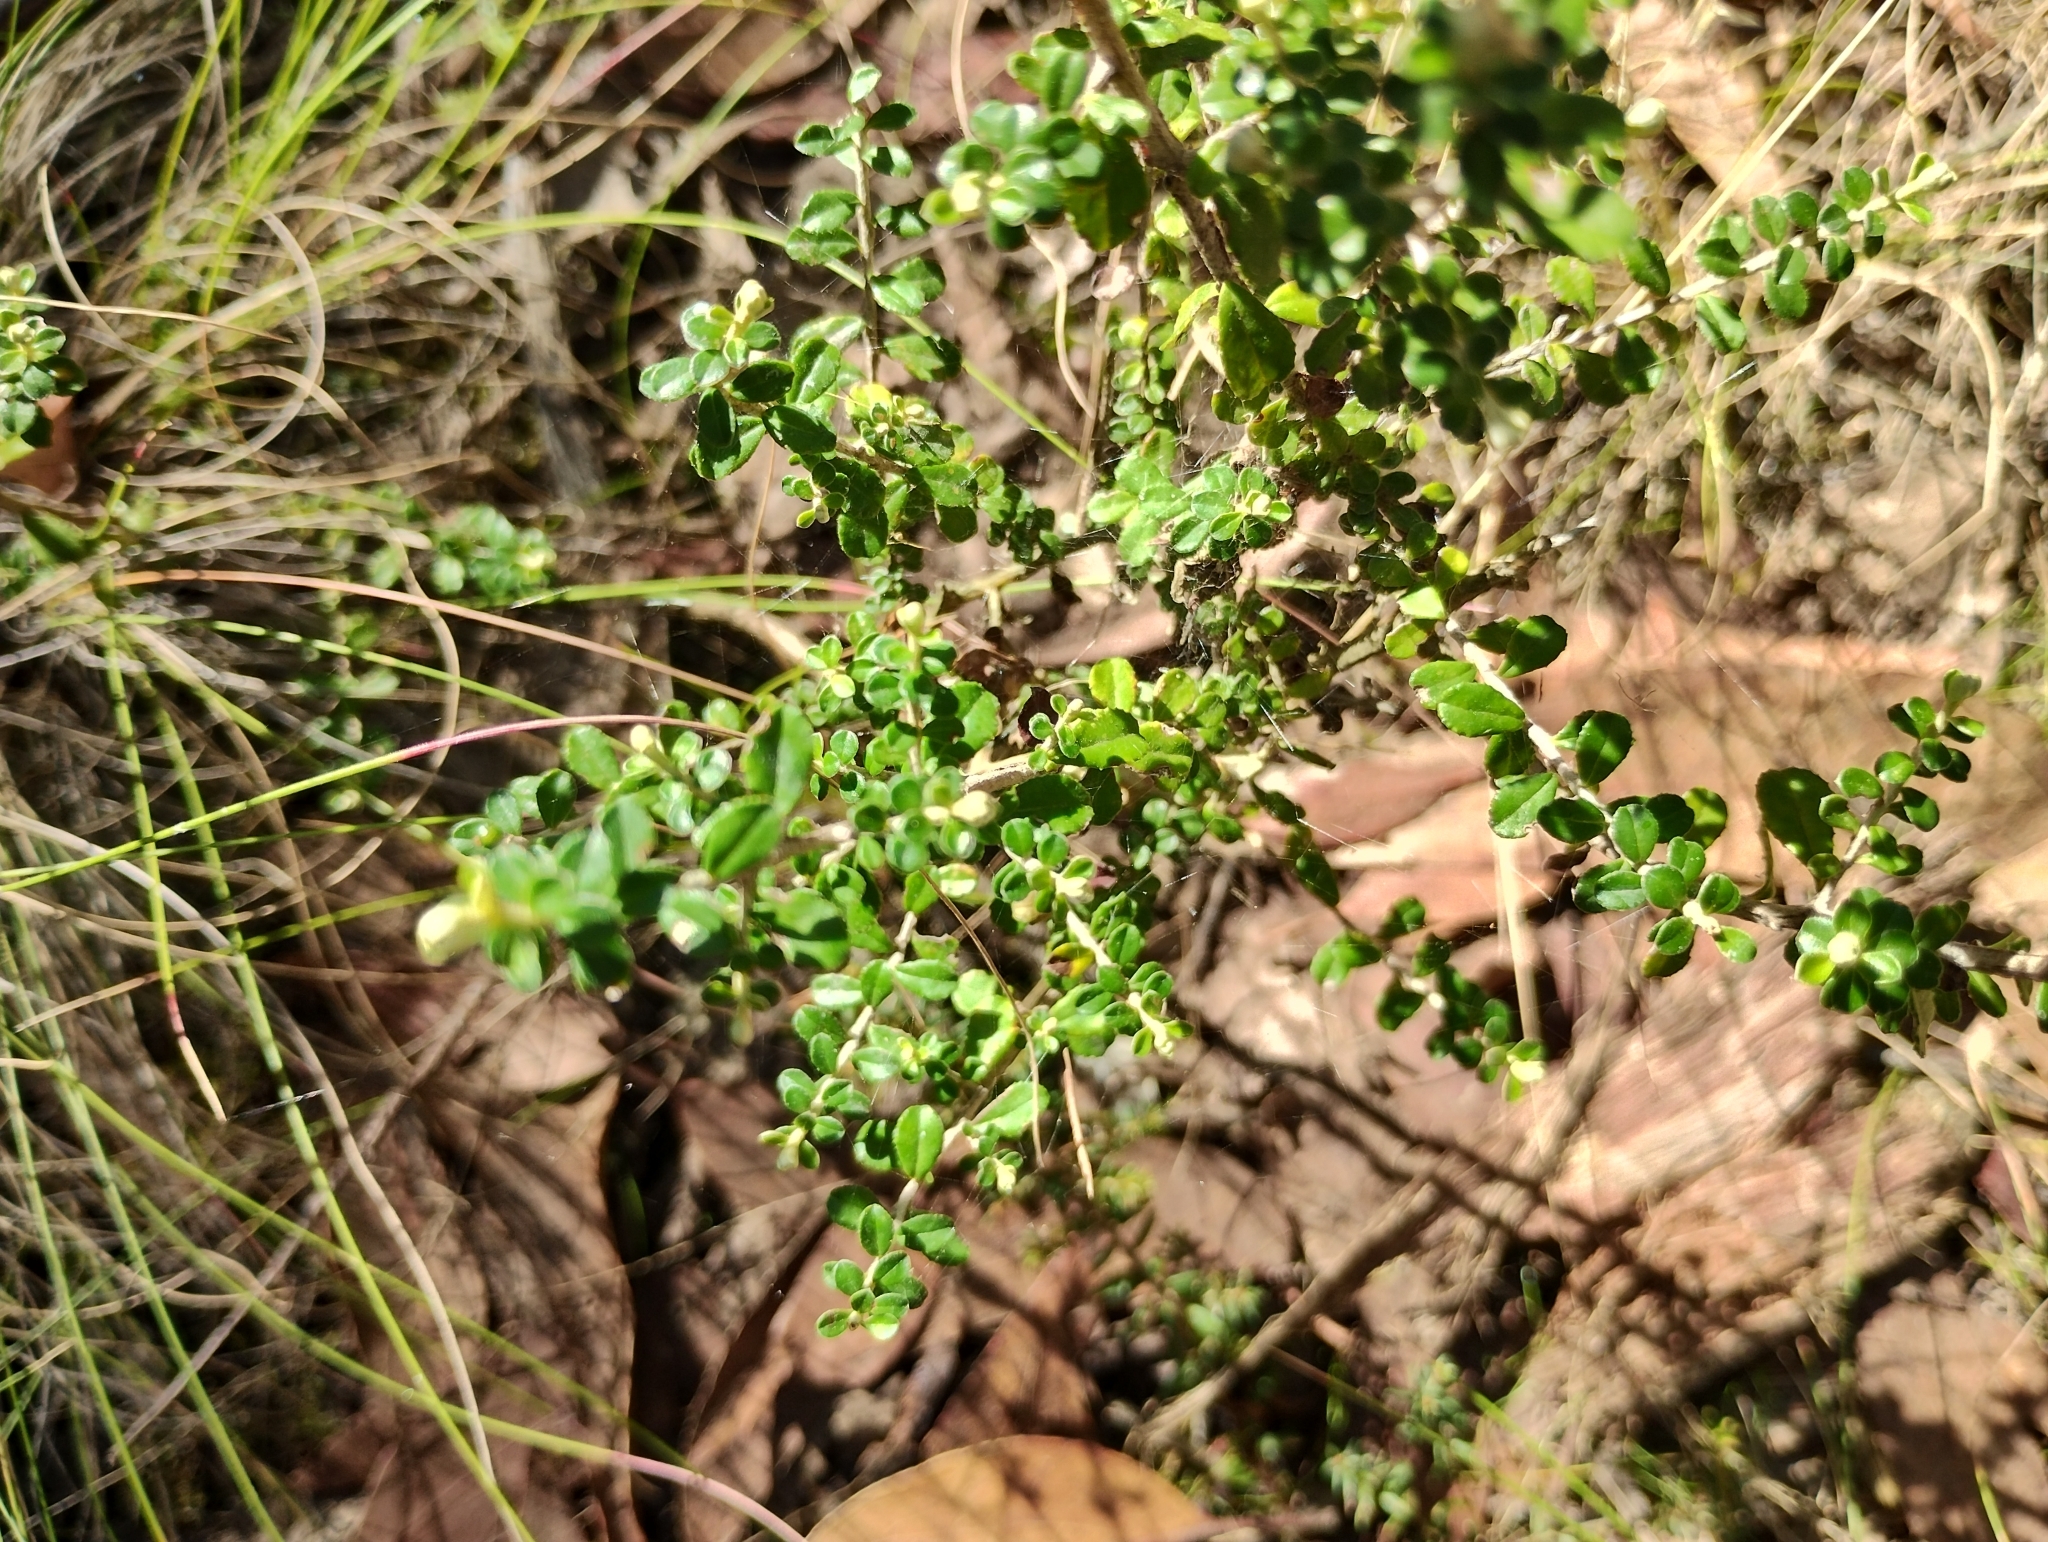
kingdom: Plantae
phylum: Tracheophyta
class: Magnoliopsida
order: Asterales
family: Asteraceae
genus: Ozothamnus
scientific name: Ozothamnus obcordatus
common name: Grey everlasting
